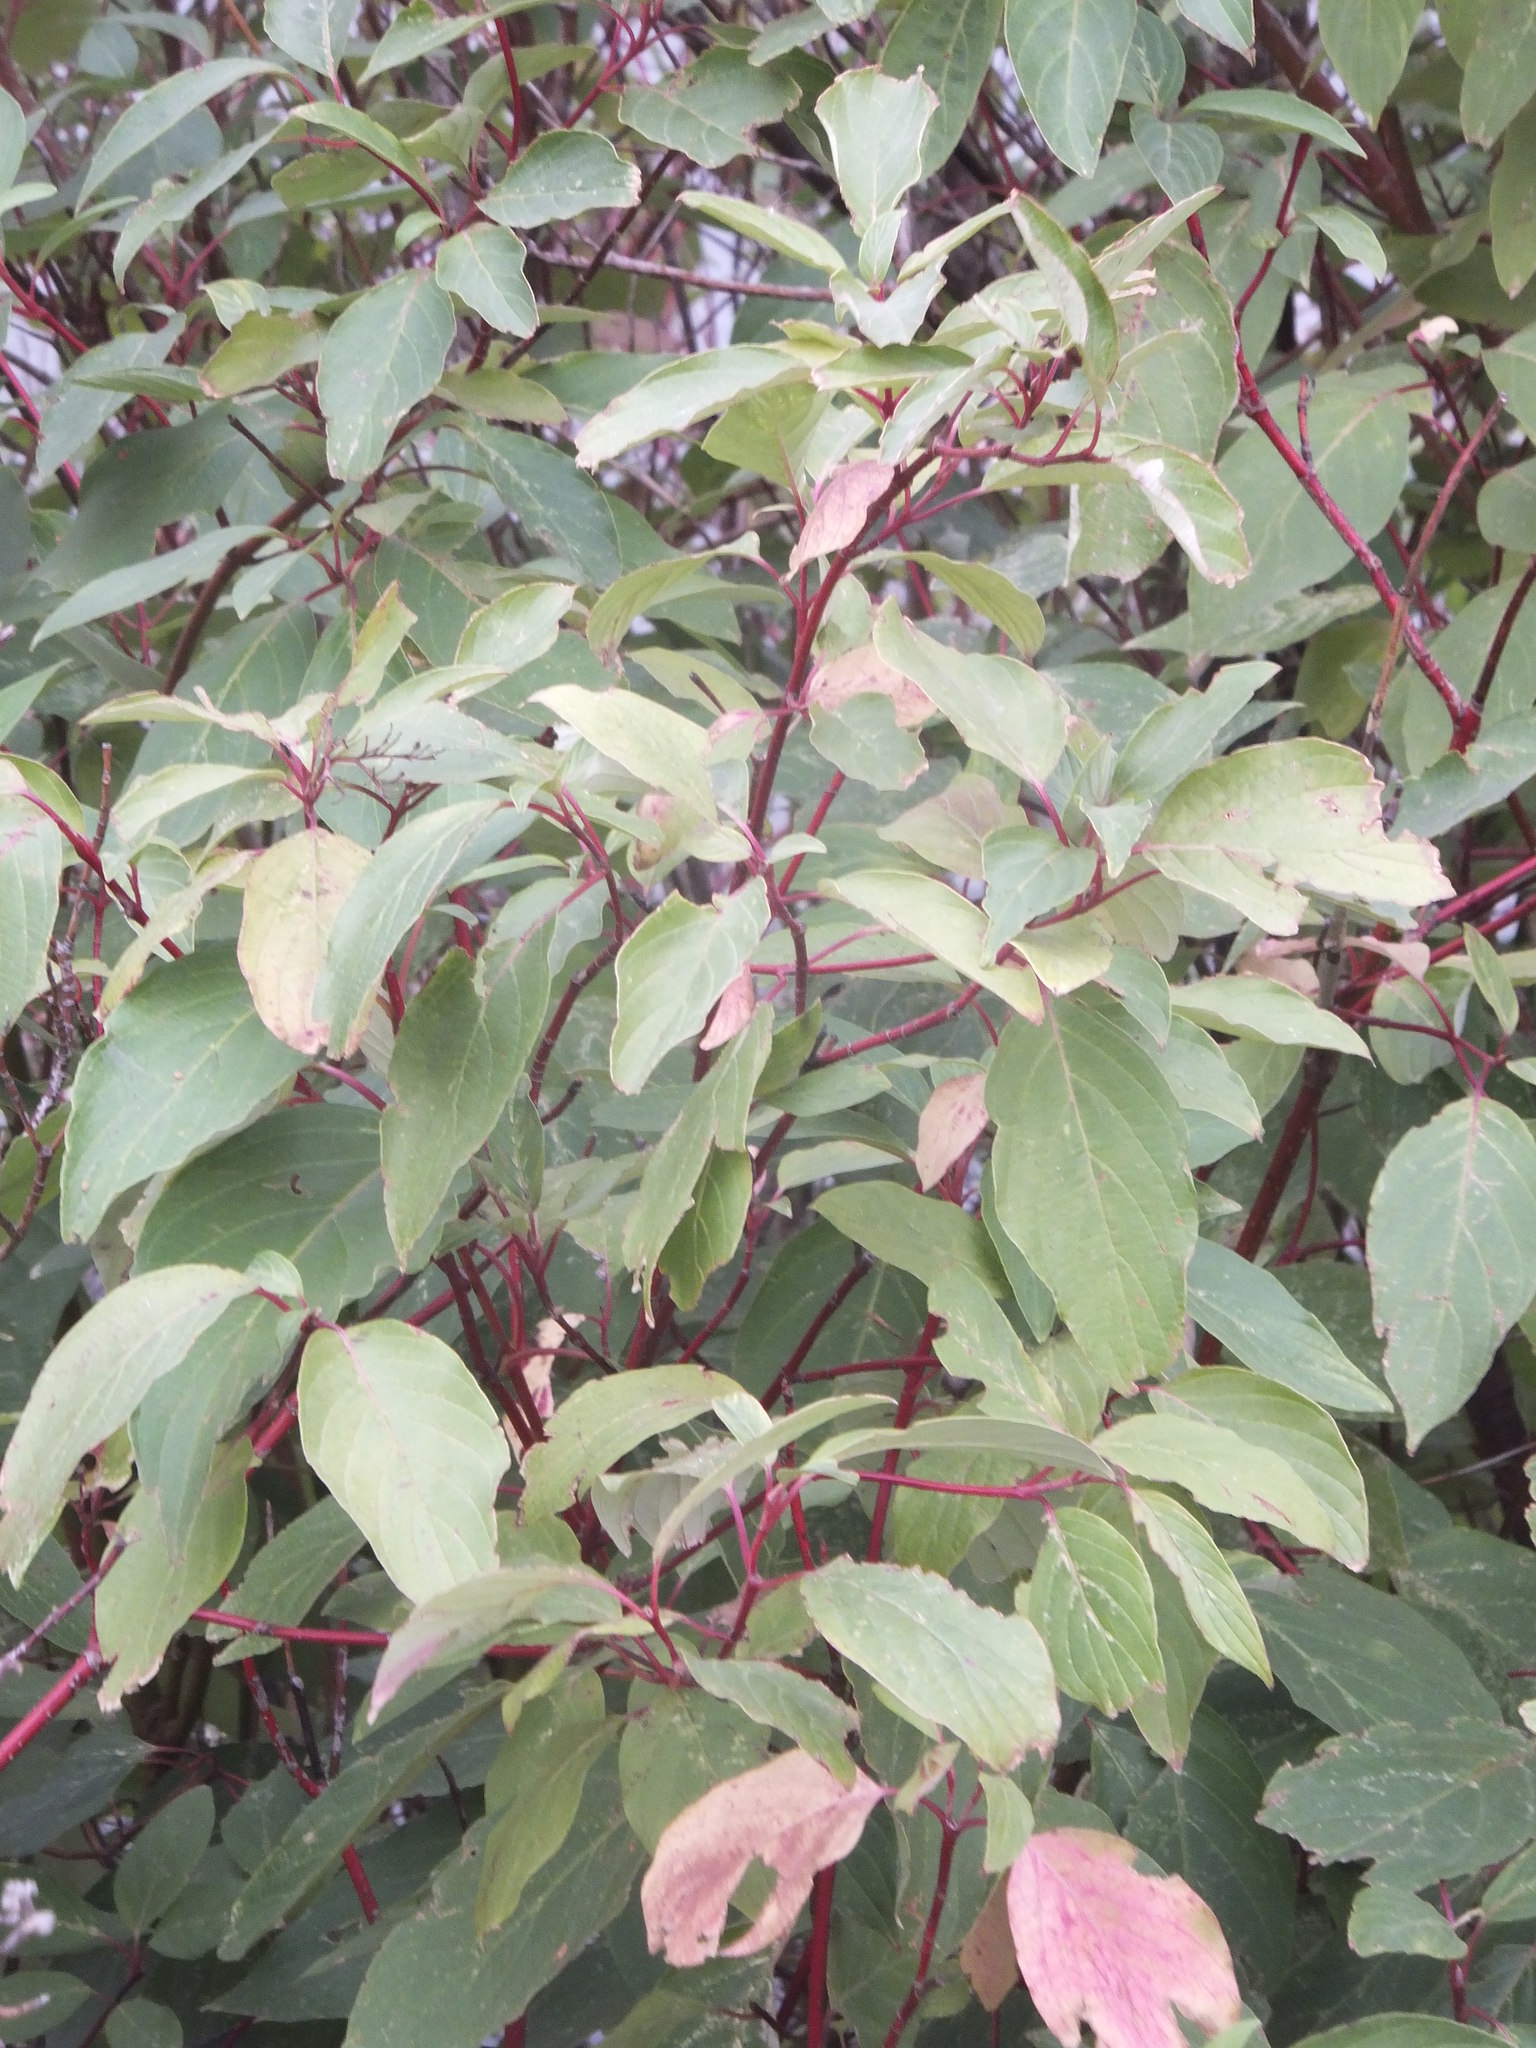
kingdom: Plantae
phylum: Tracheophyta
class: Magnoliopsida
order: Cornales
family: Cornaceae
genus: Cornus
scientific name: Cornus sericea
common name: Red-osier dogwood
